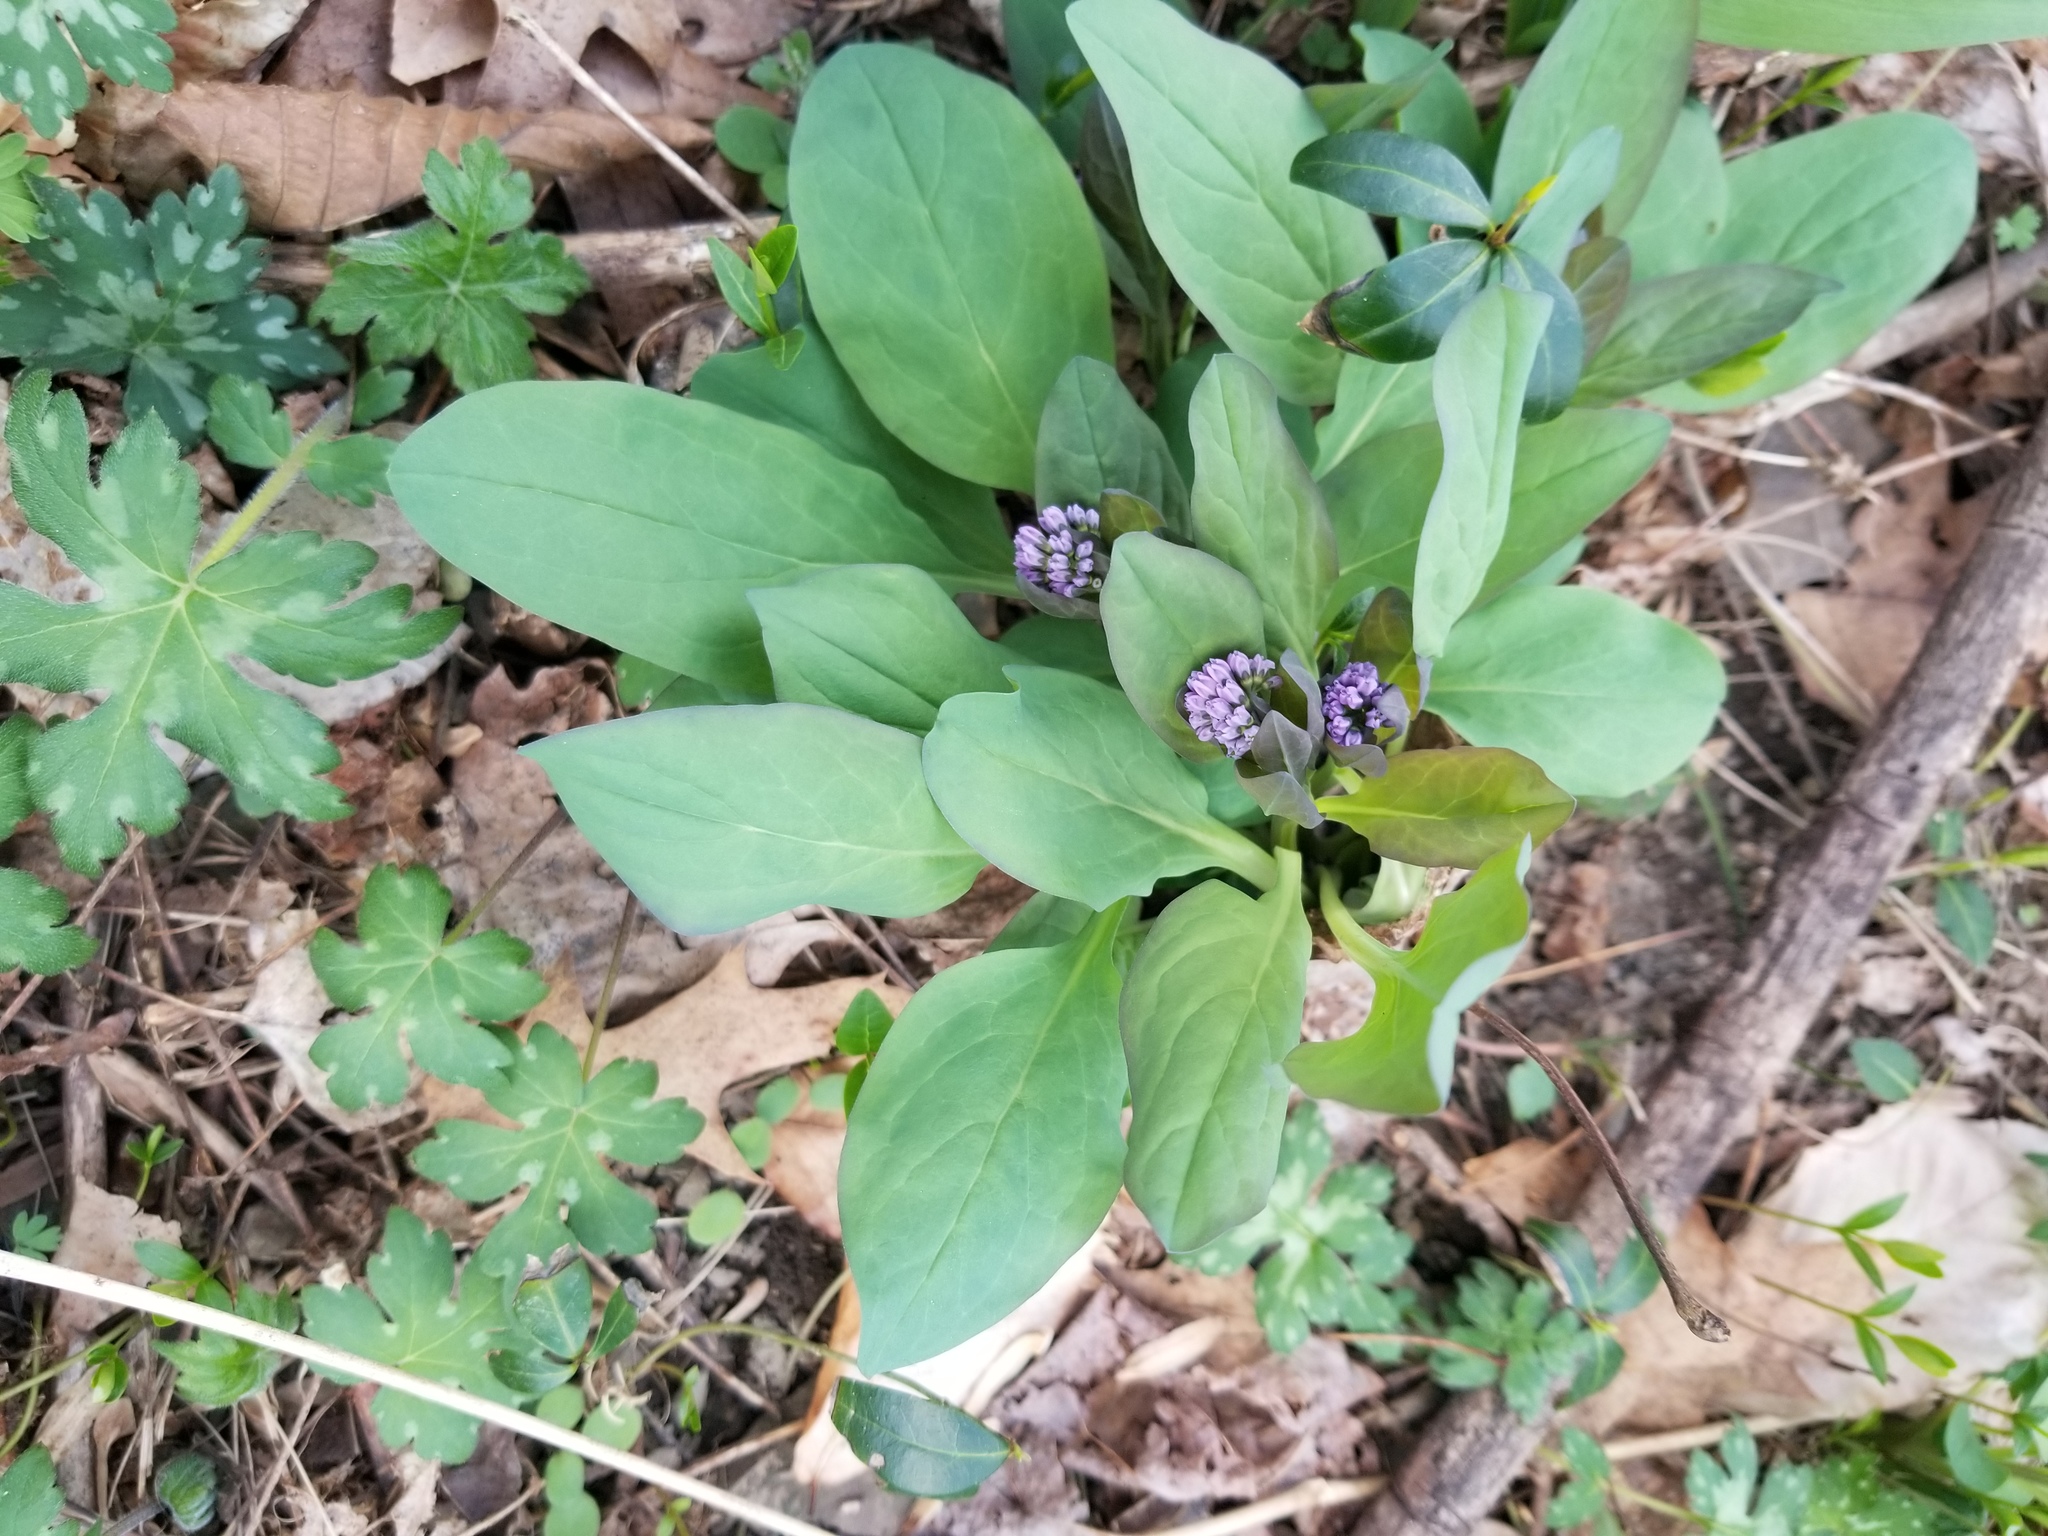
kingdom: Plantae
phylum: Tracheophyta
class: Magnoliopsida
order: Boraginales
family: Boraginaceae
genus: Mertensia
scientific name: Mertensia virginica
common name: Virginia bluebells
